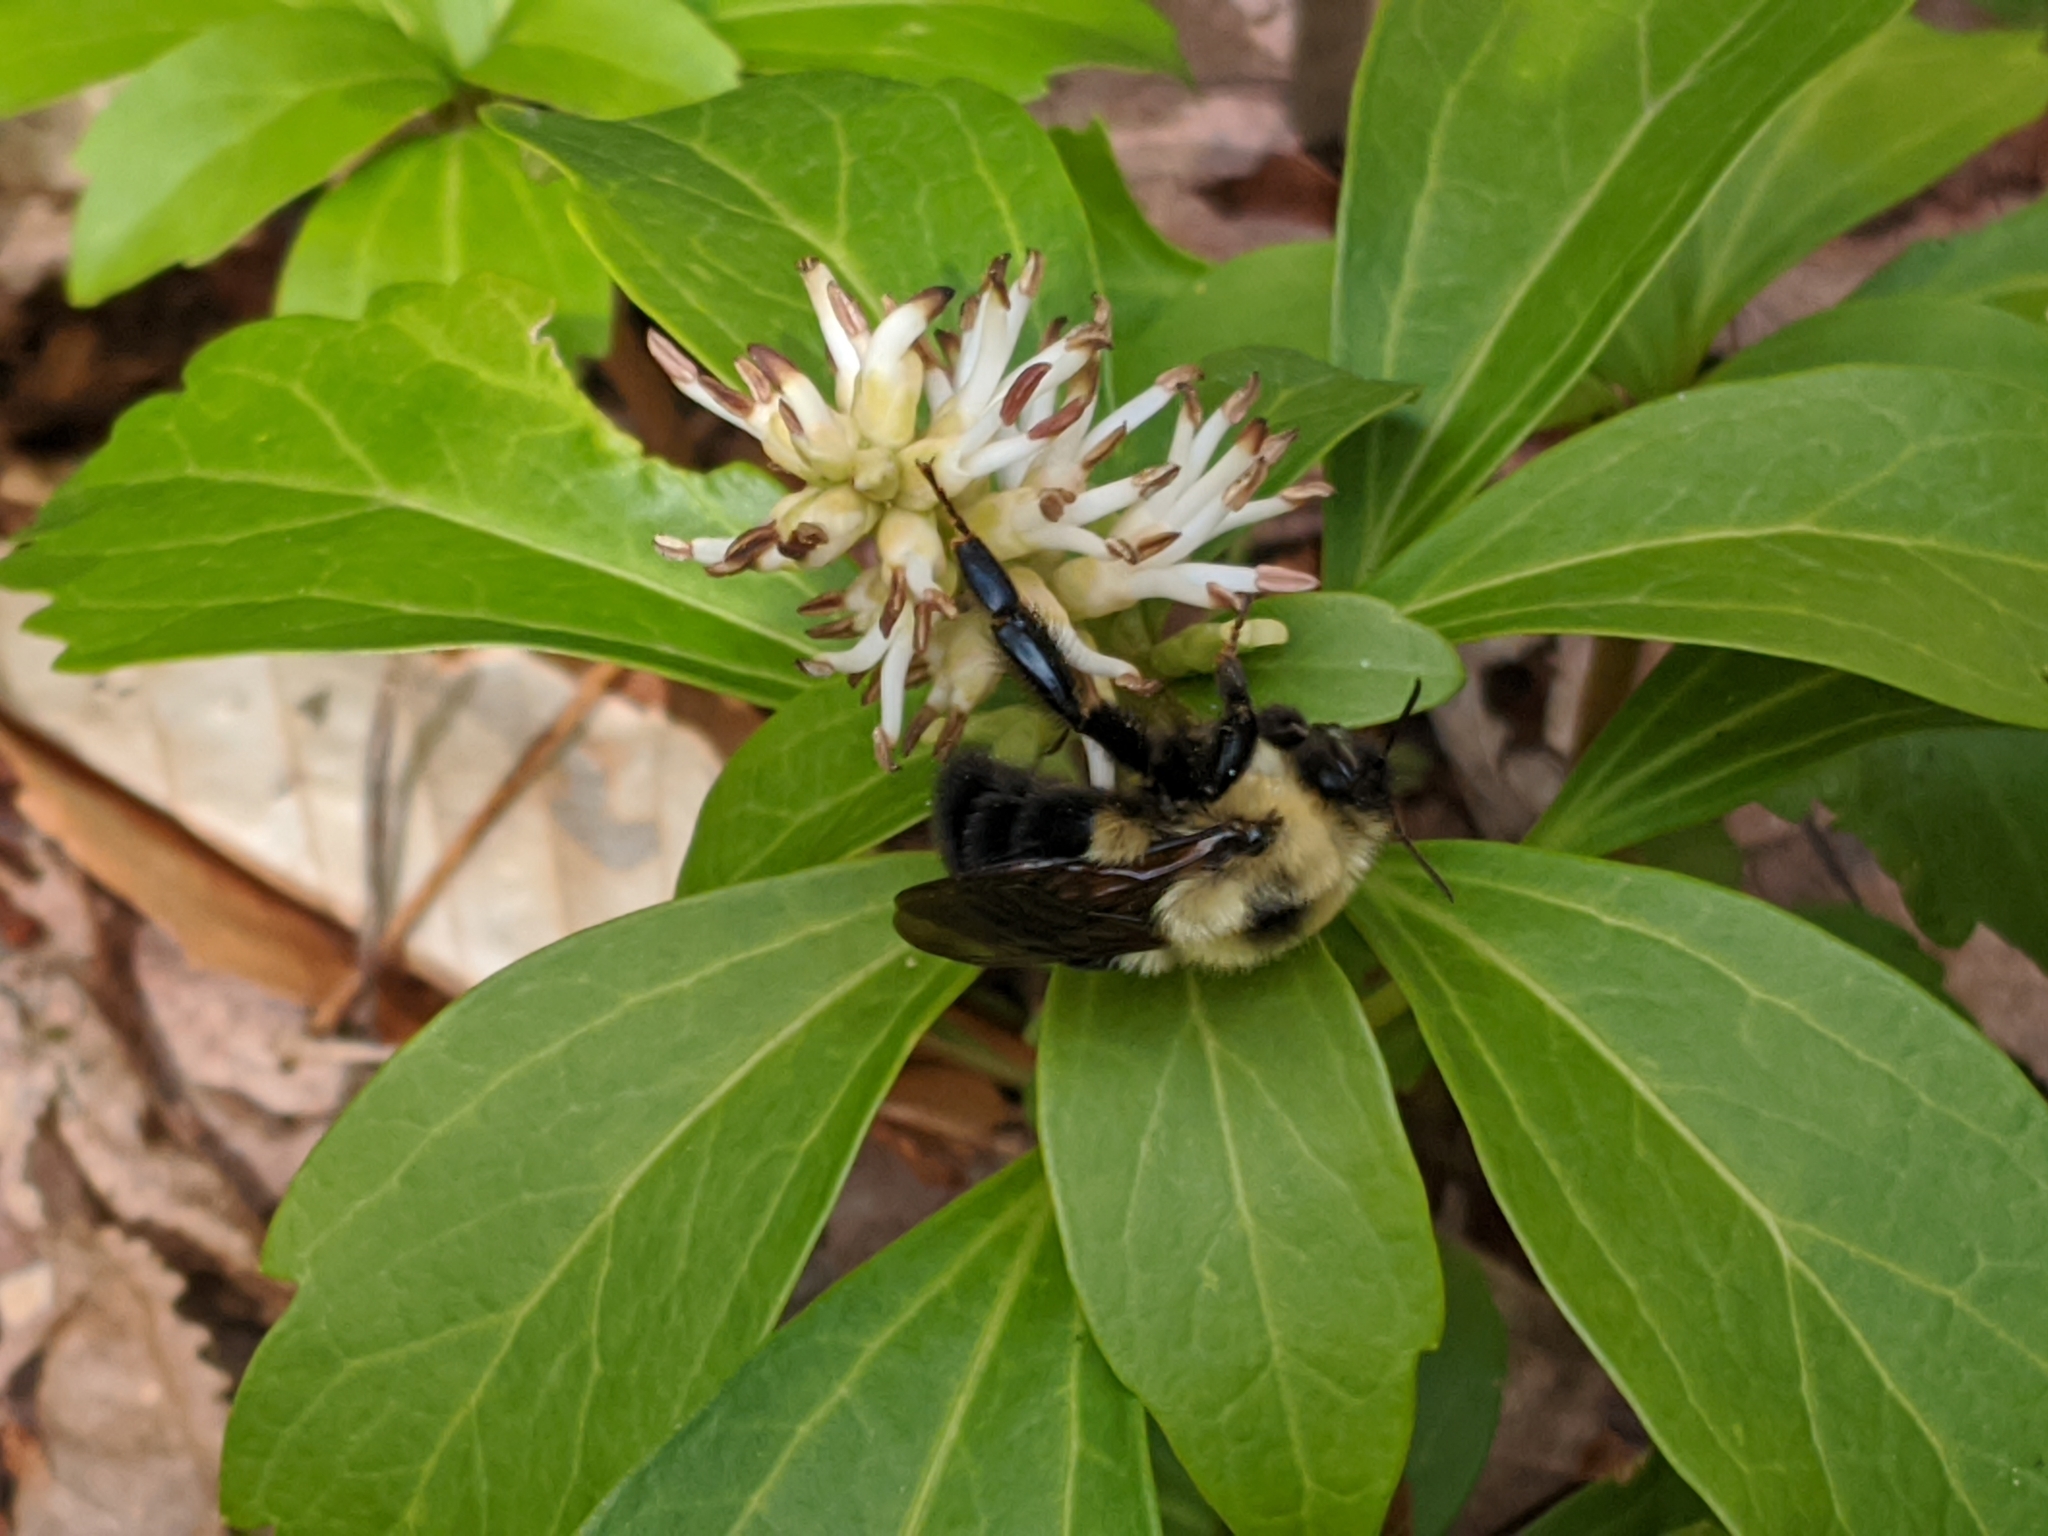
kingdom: Animalia
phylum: Arthropoda
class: Insecta
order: Hymenoptera
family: Apidae
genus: Bombus
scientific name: Bombus bimaculatus
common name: Two-spotted bumble bee
